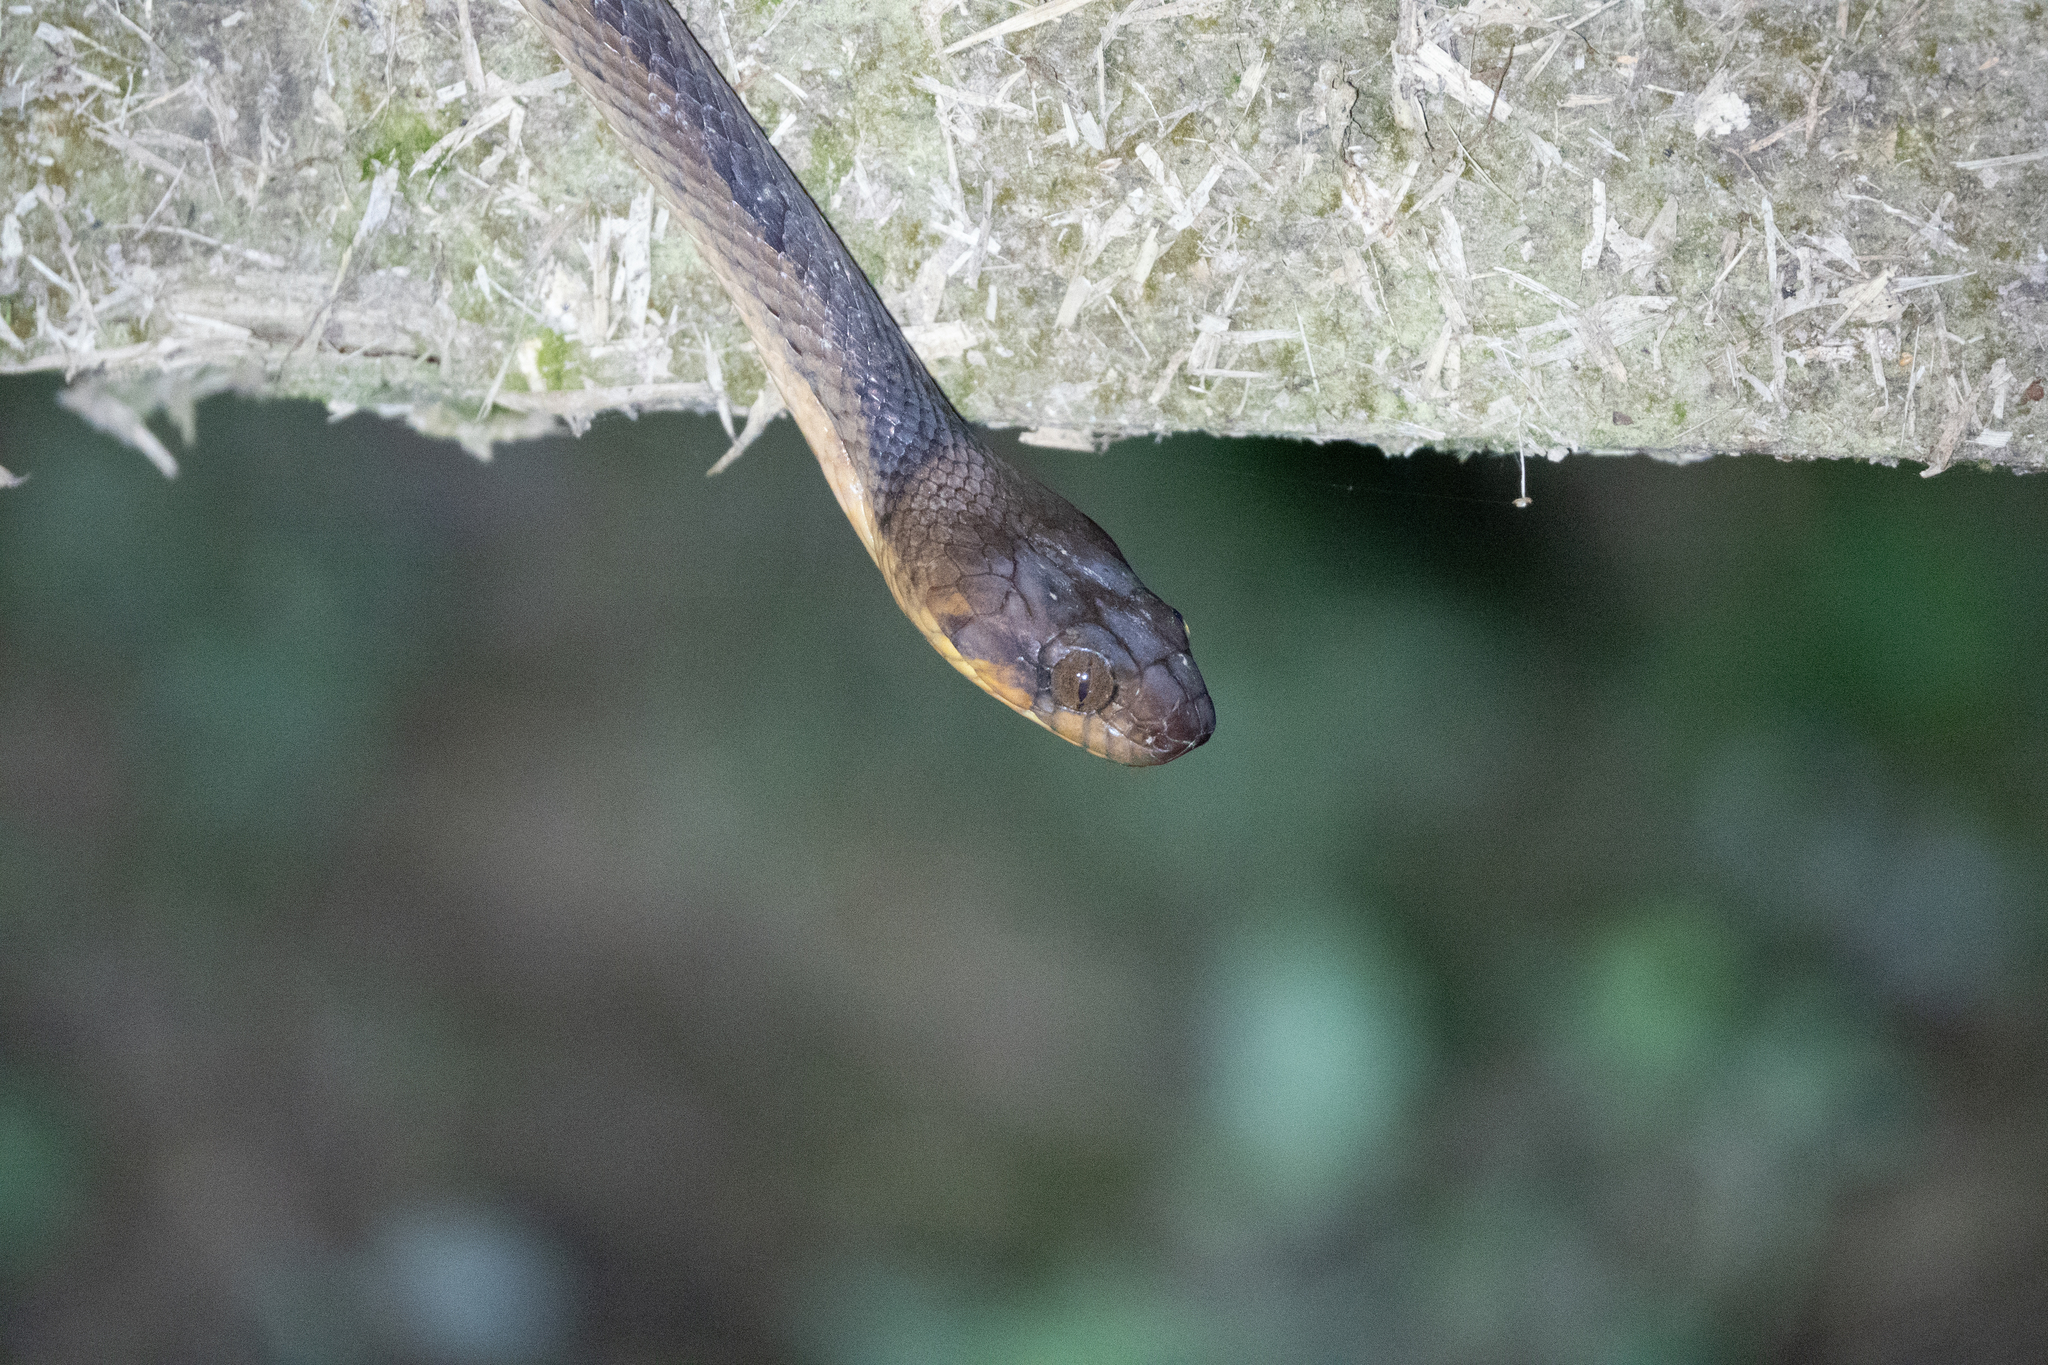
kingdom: Animalia
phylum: Chordata
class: Squamata
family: Colubridae
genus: Leptodeira
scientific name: Leptodeira annulata
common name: Banded cat-eyed snake
